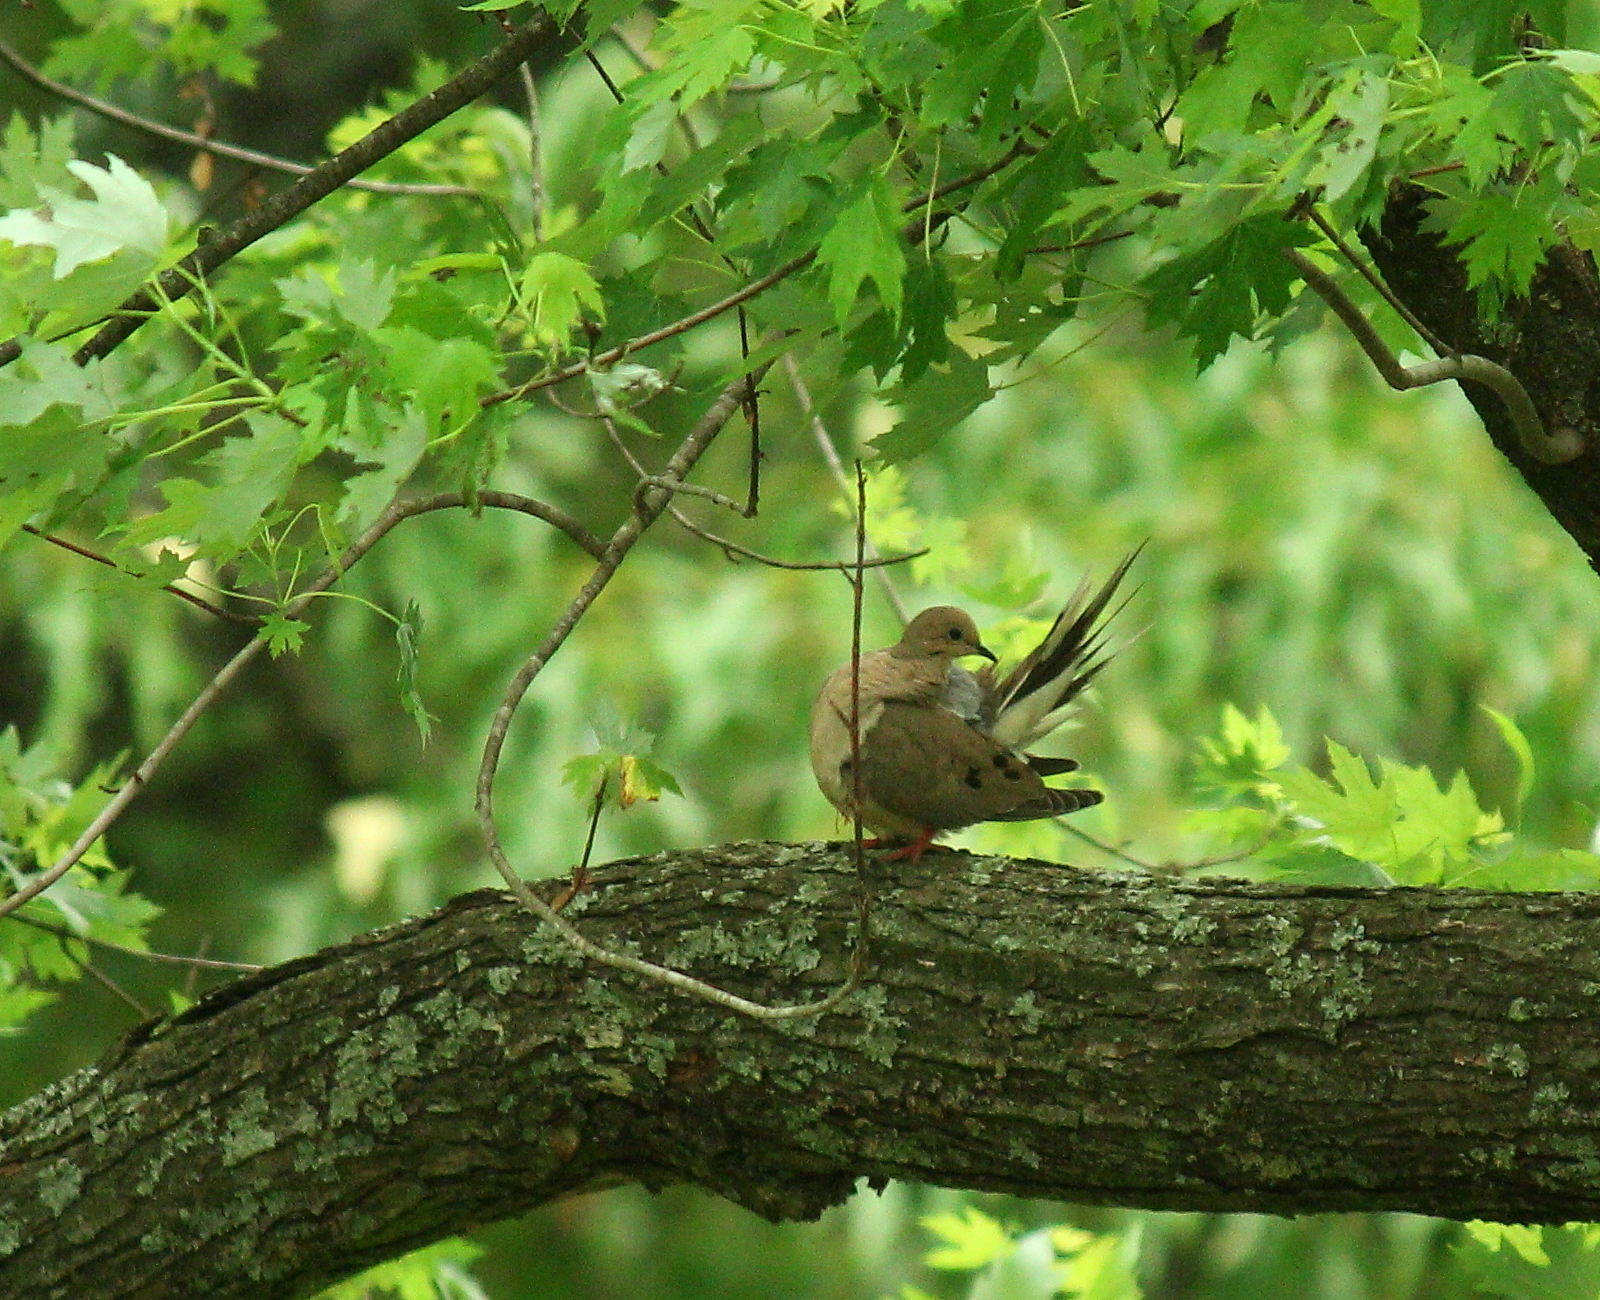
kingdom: Animalia
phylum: Chordata
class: Aves
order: Columbiformes
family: Columbidae
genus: Zenaida
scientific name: Zenaida macroura
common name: Mourning dove
